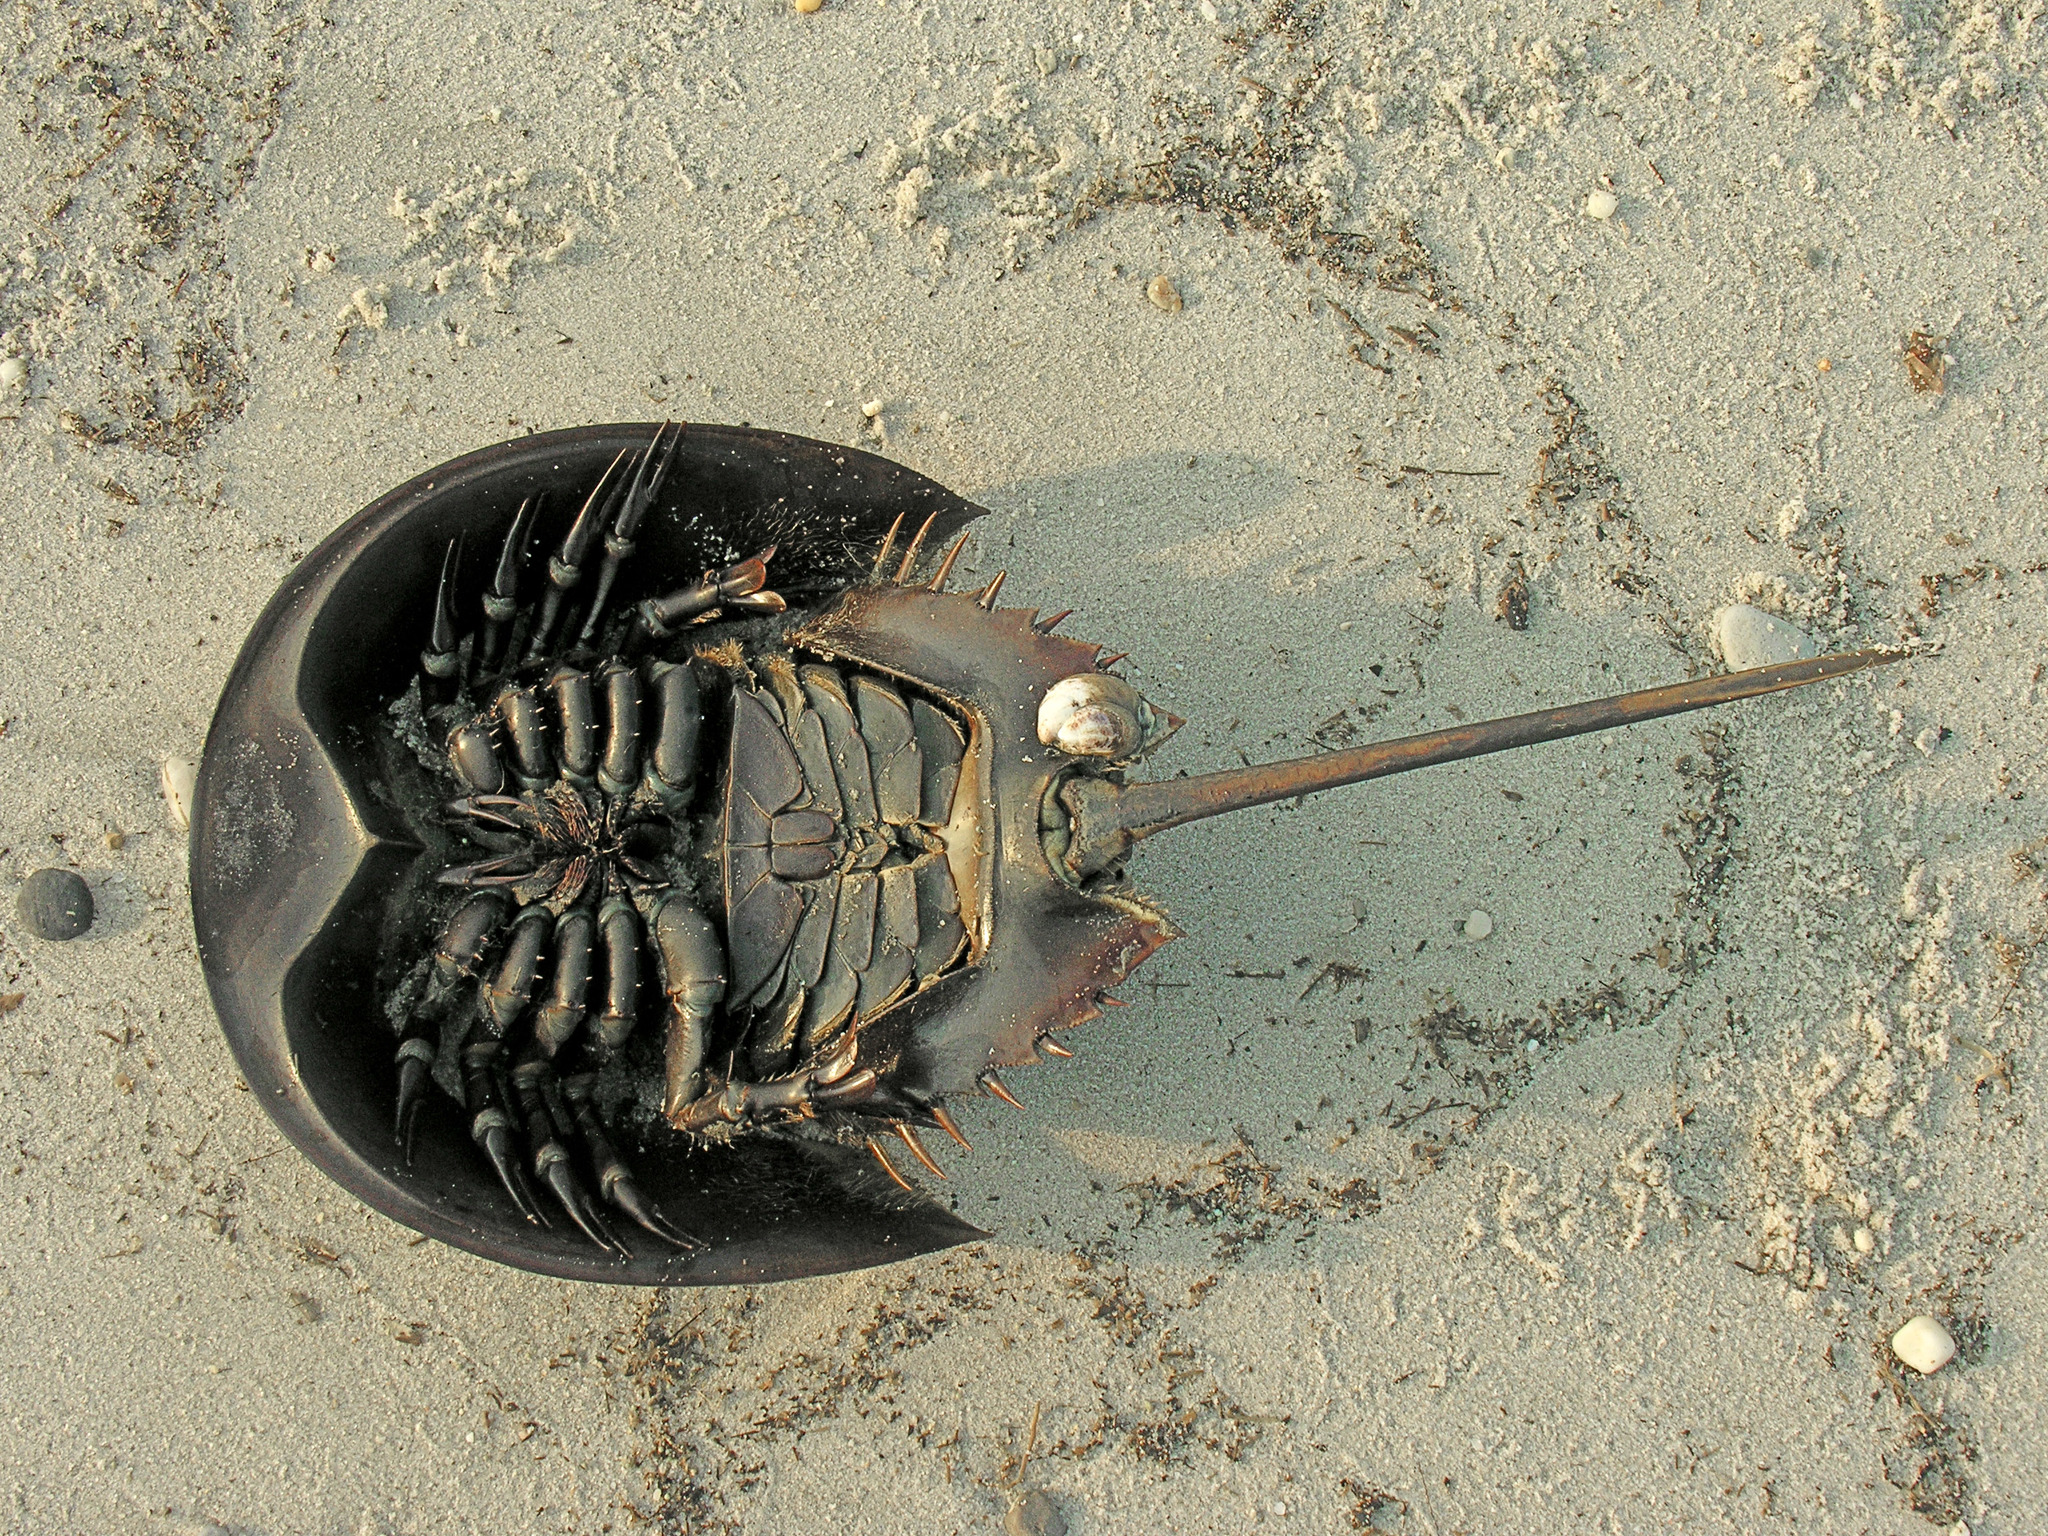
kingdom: Animalia
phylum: Arthropoda
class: Merostomata
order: Xiphosurida
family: Limulidae
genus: Limulus
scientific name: Limulus polyphemus
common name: Horseshoe crab
